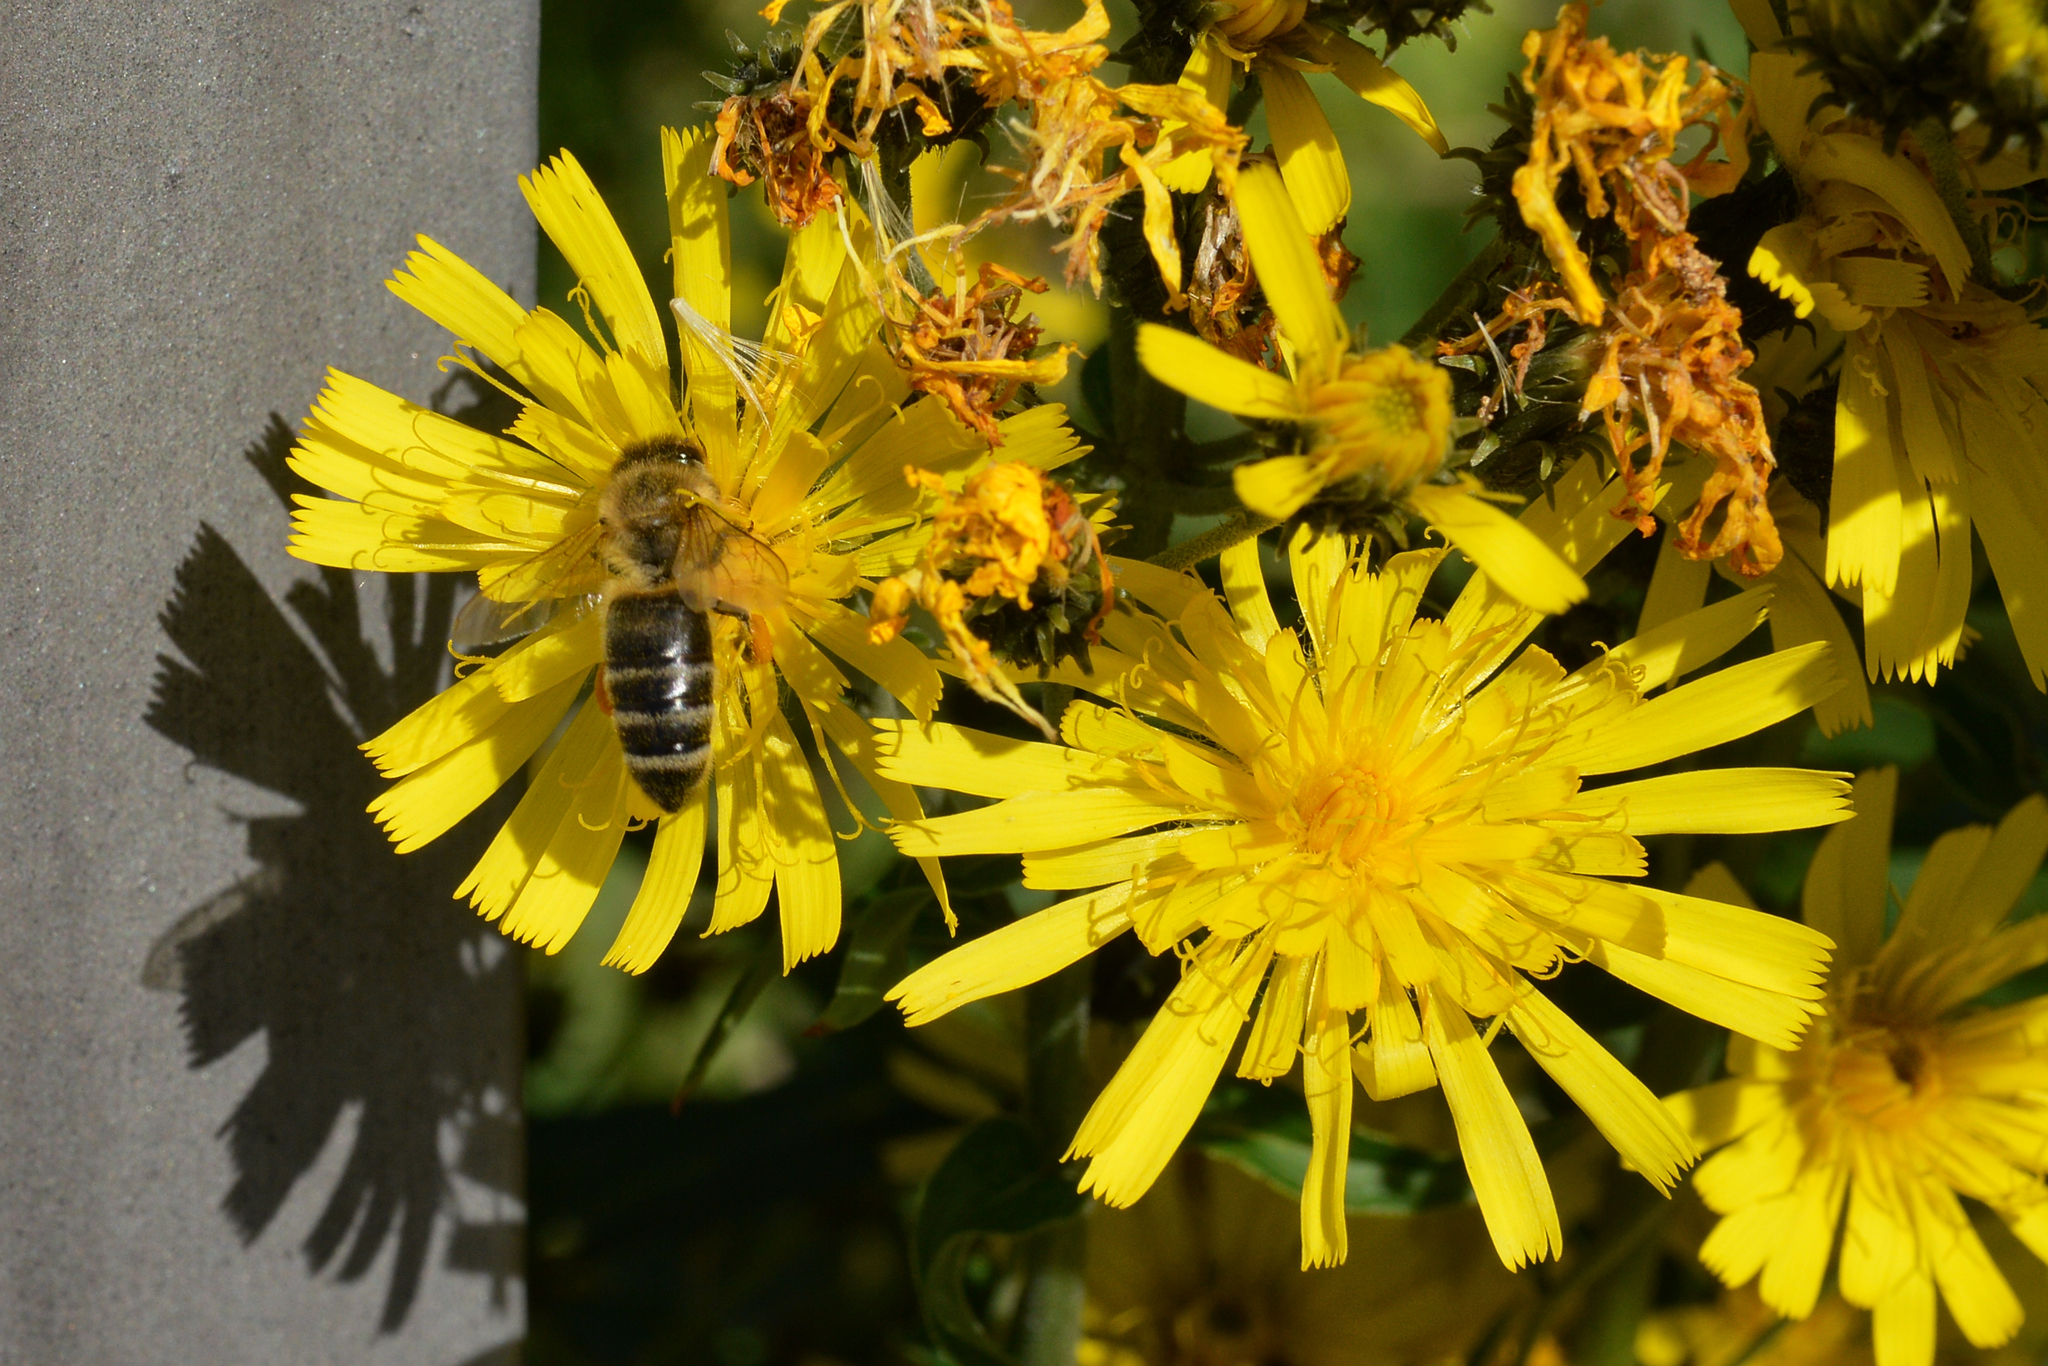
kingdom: Animalia
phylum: Arthropoda
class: Insecta
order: Hymenoptera
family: Apidae
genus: Apis
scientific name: Apis mellifera
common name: Honey bee
